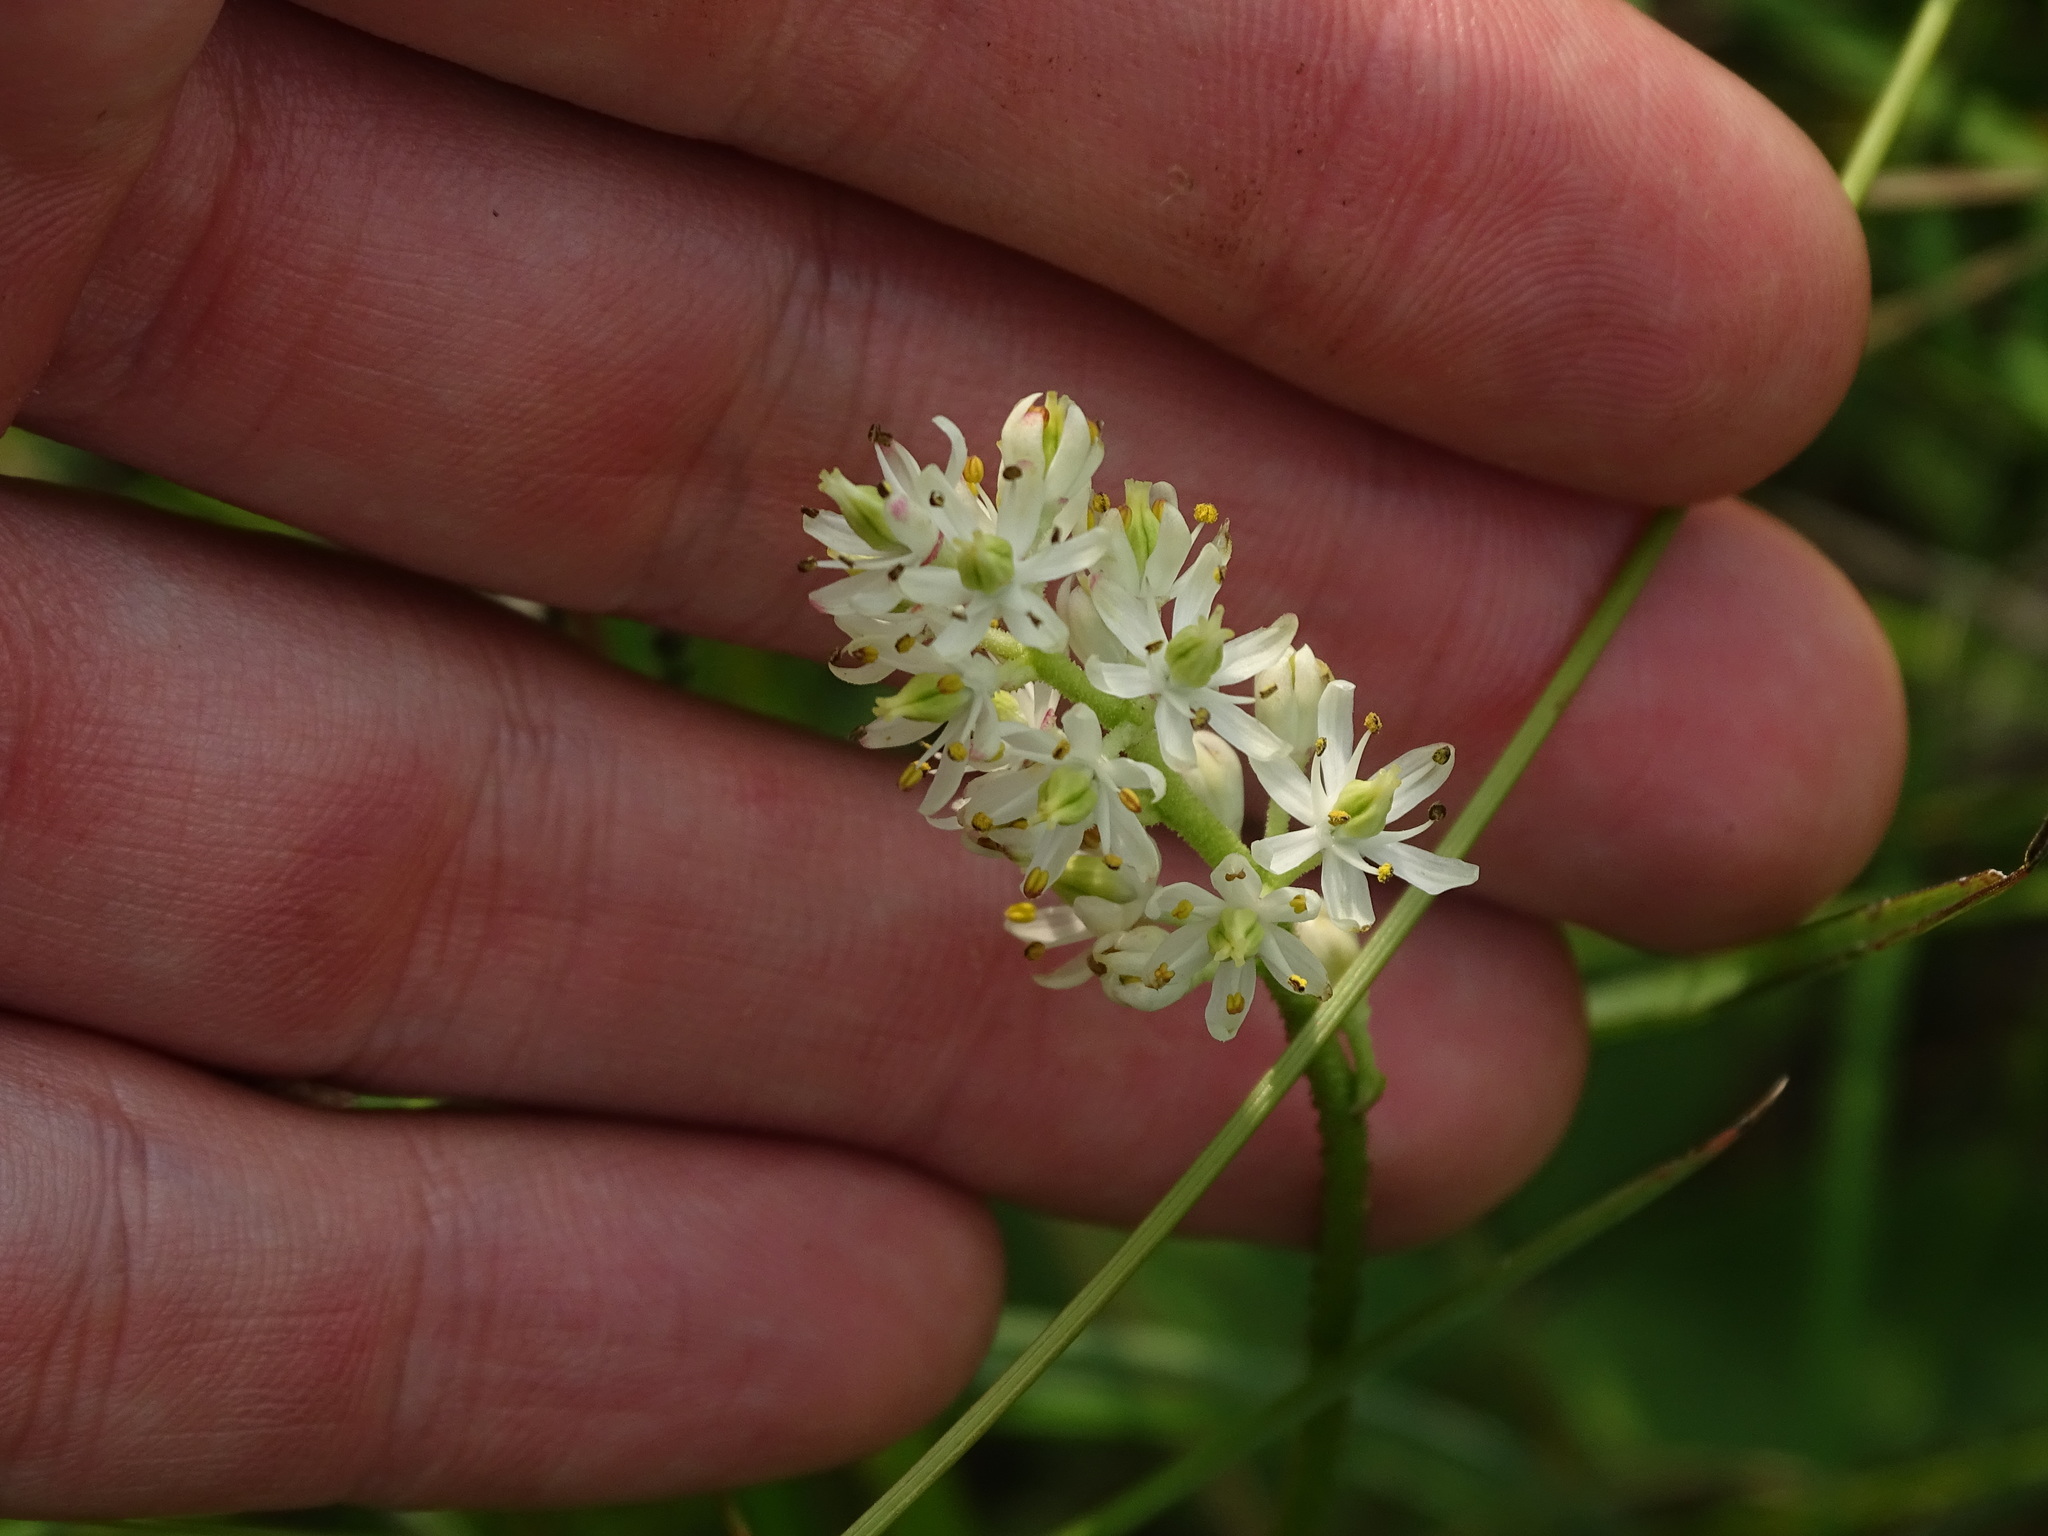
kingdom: Plantae
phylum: Tracheophyta
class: Liliopsida
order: Alismatales
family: Tofieldiaceae
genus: Triantha
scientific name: Triantha glutinosa
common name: Glutinous tofieldia
